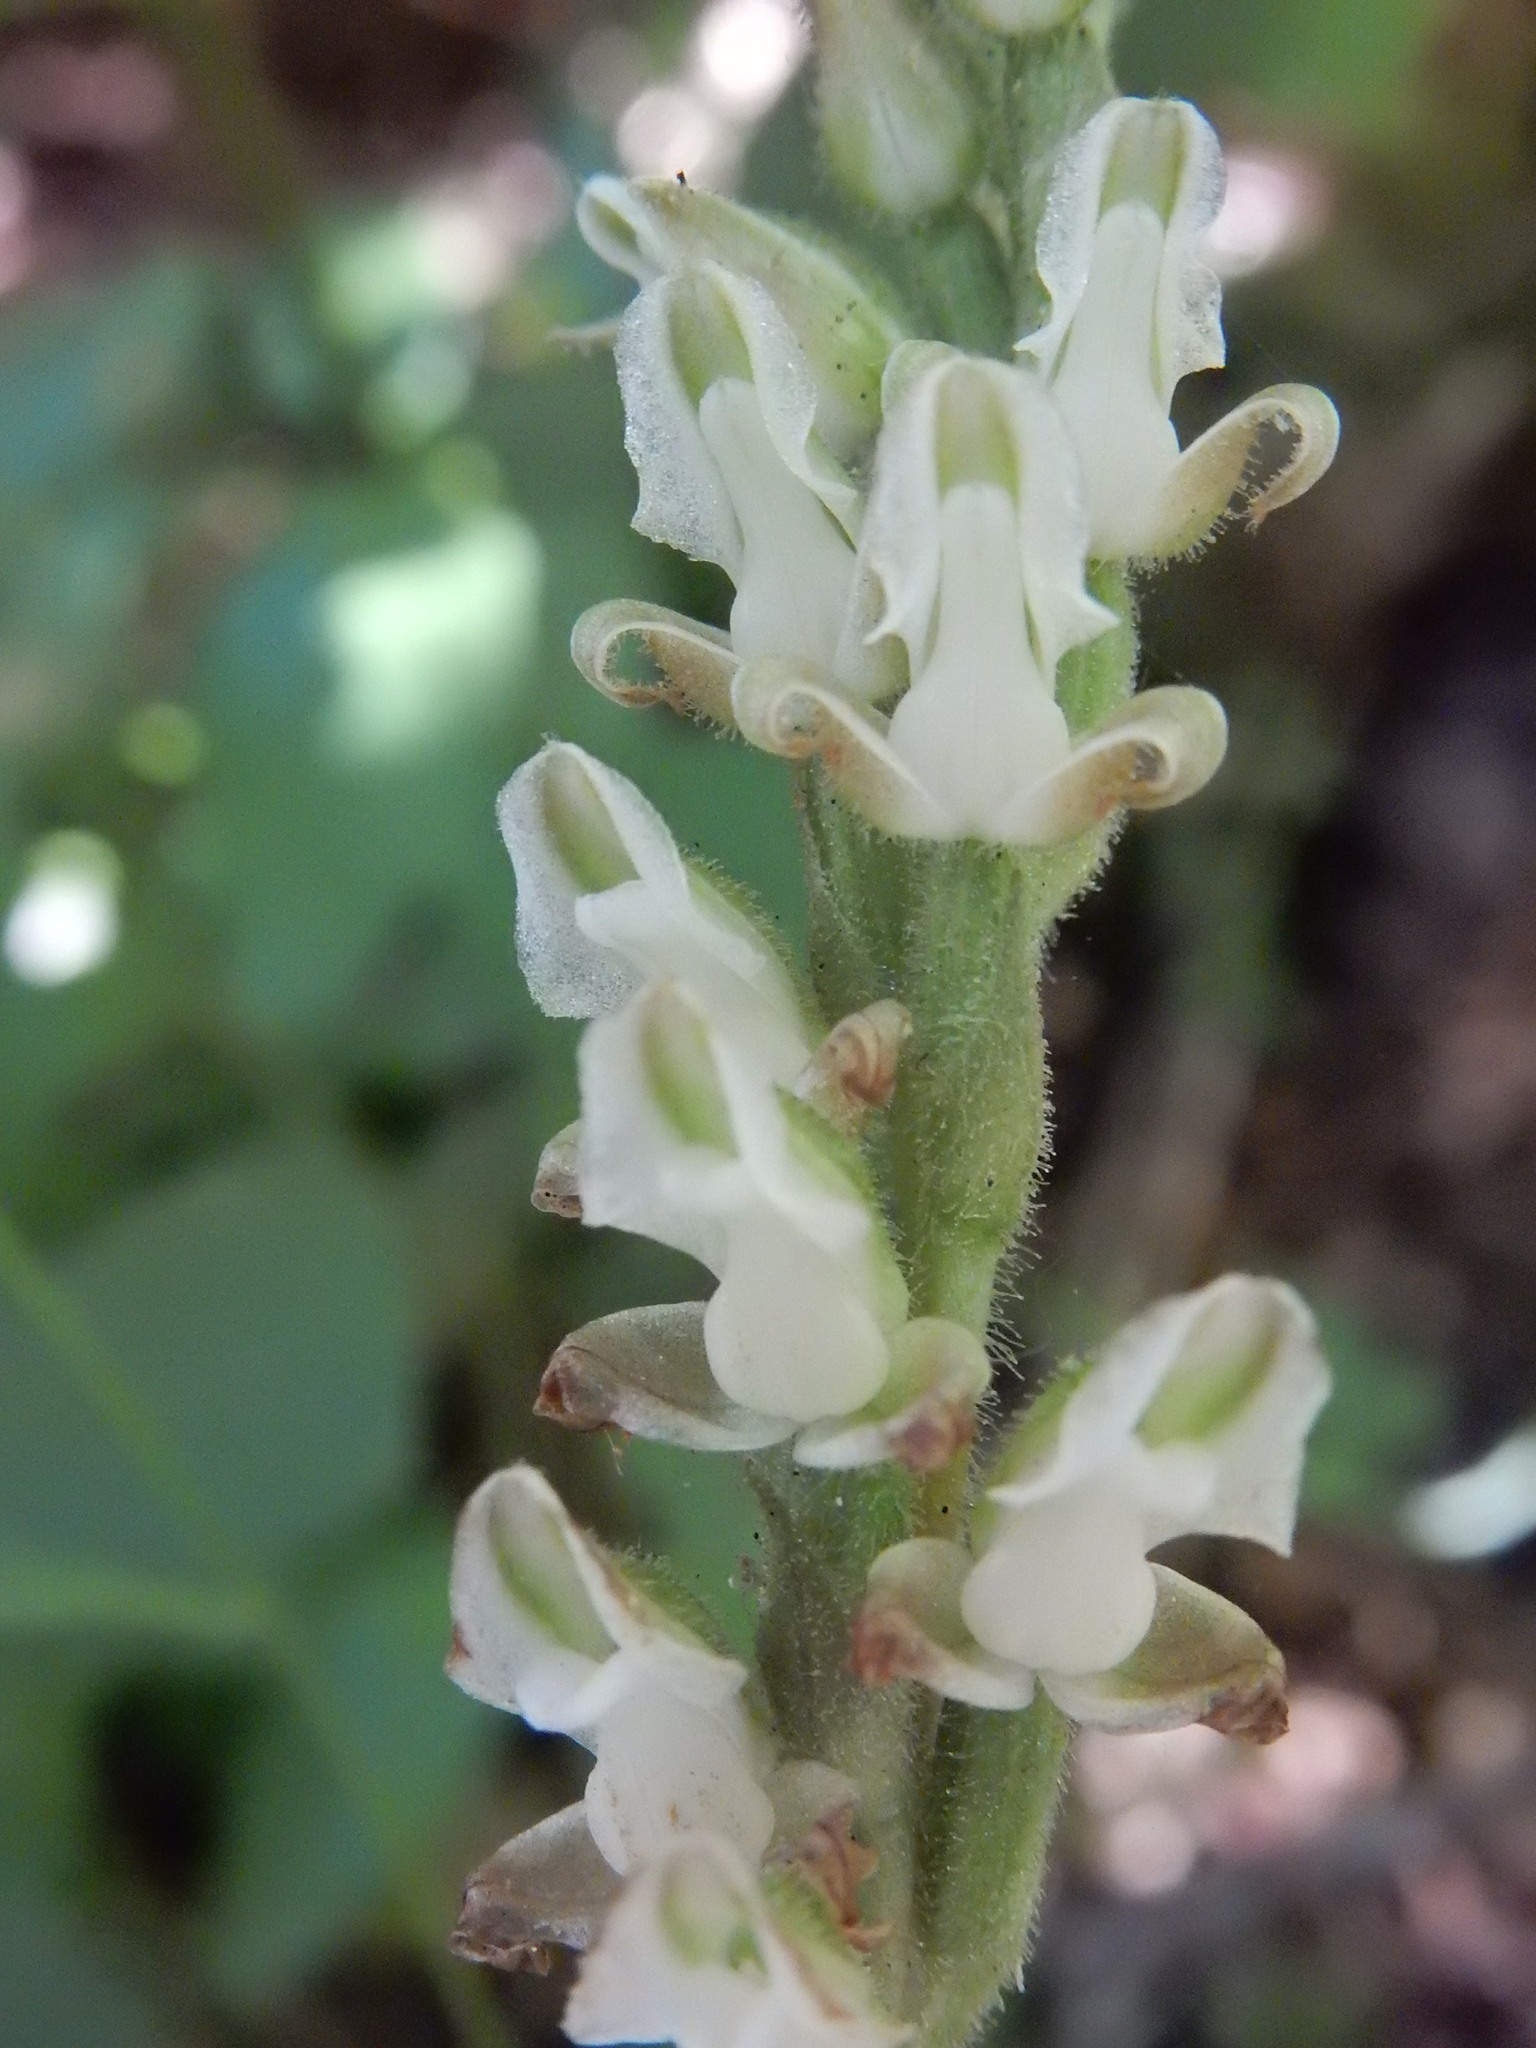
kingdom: Plantae
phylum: Tracheophyta
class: Liliopsida
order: Asparagales
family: Orchidaceae
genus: Goodyera
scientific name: Goodyera oblongifolia
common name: Giant rattlesnake-plantain
